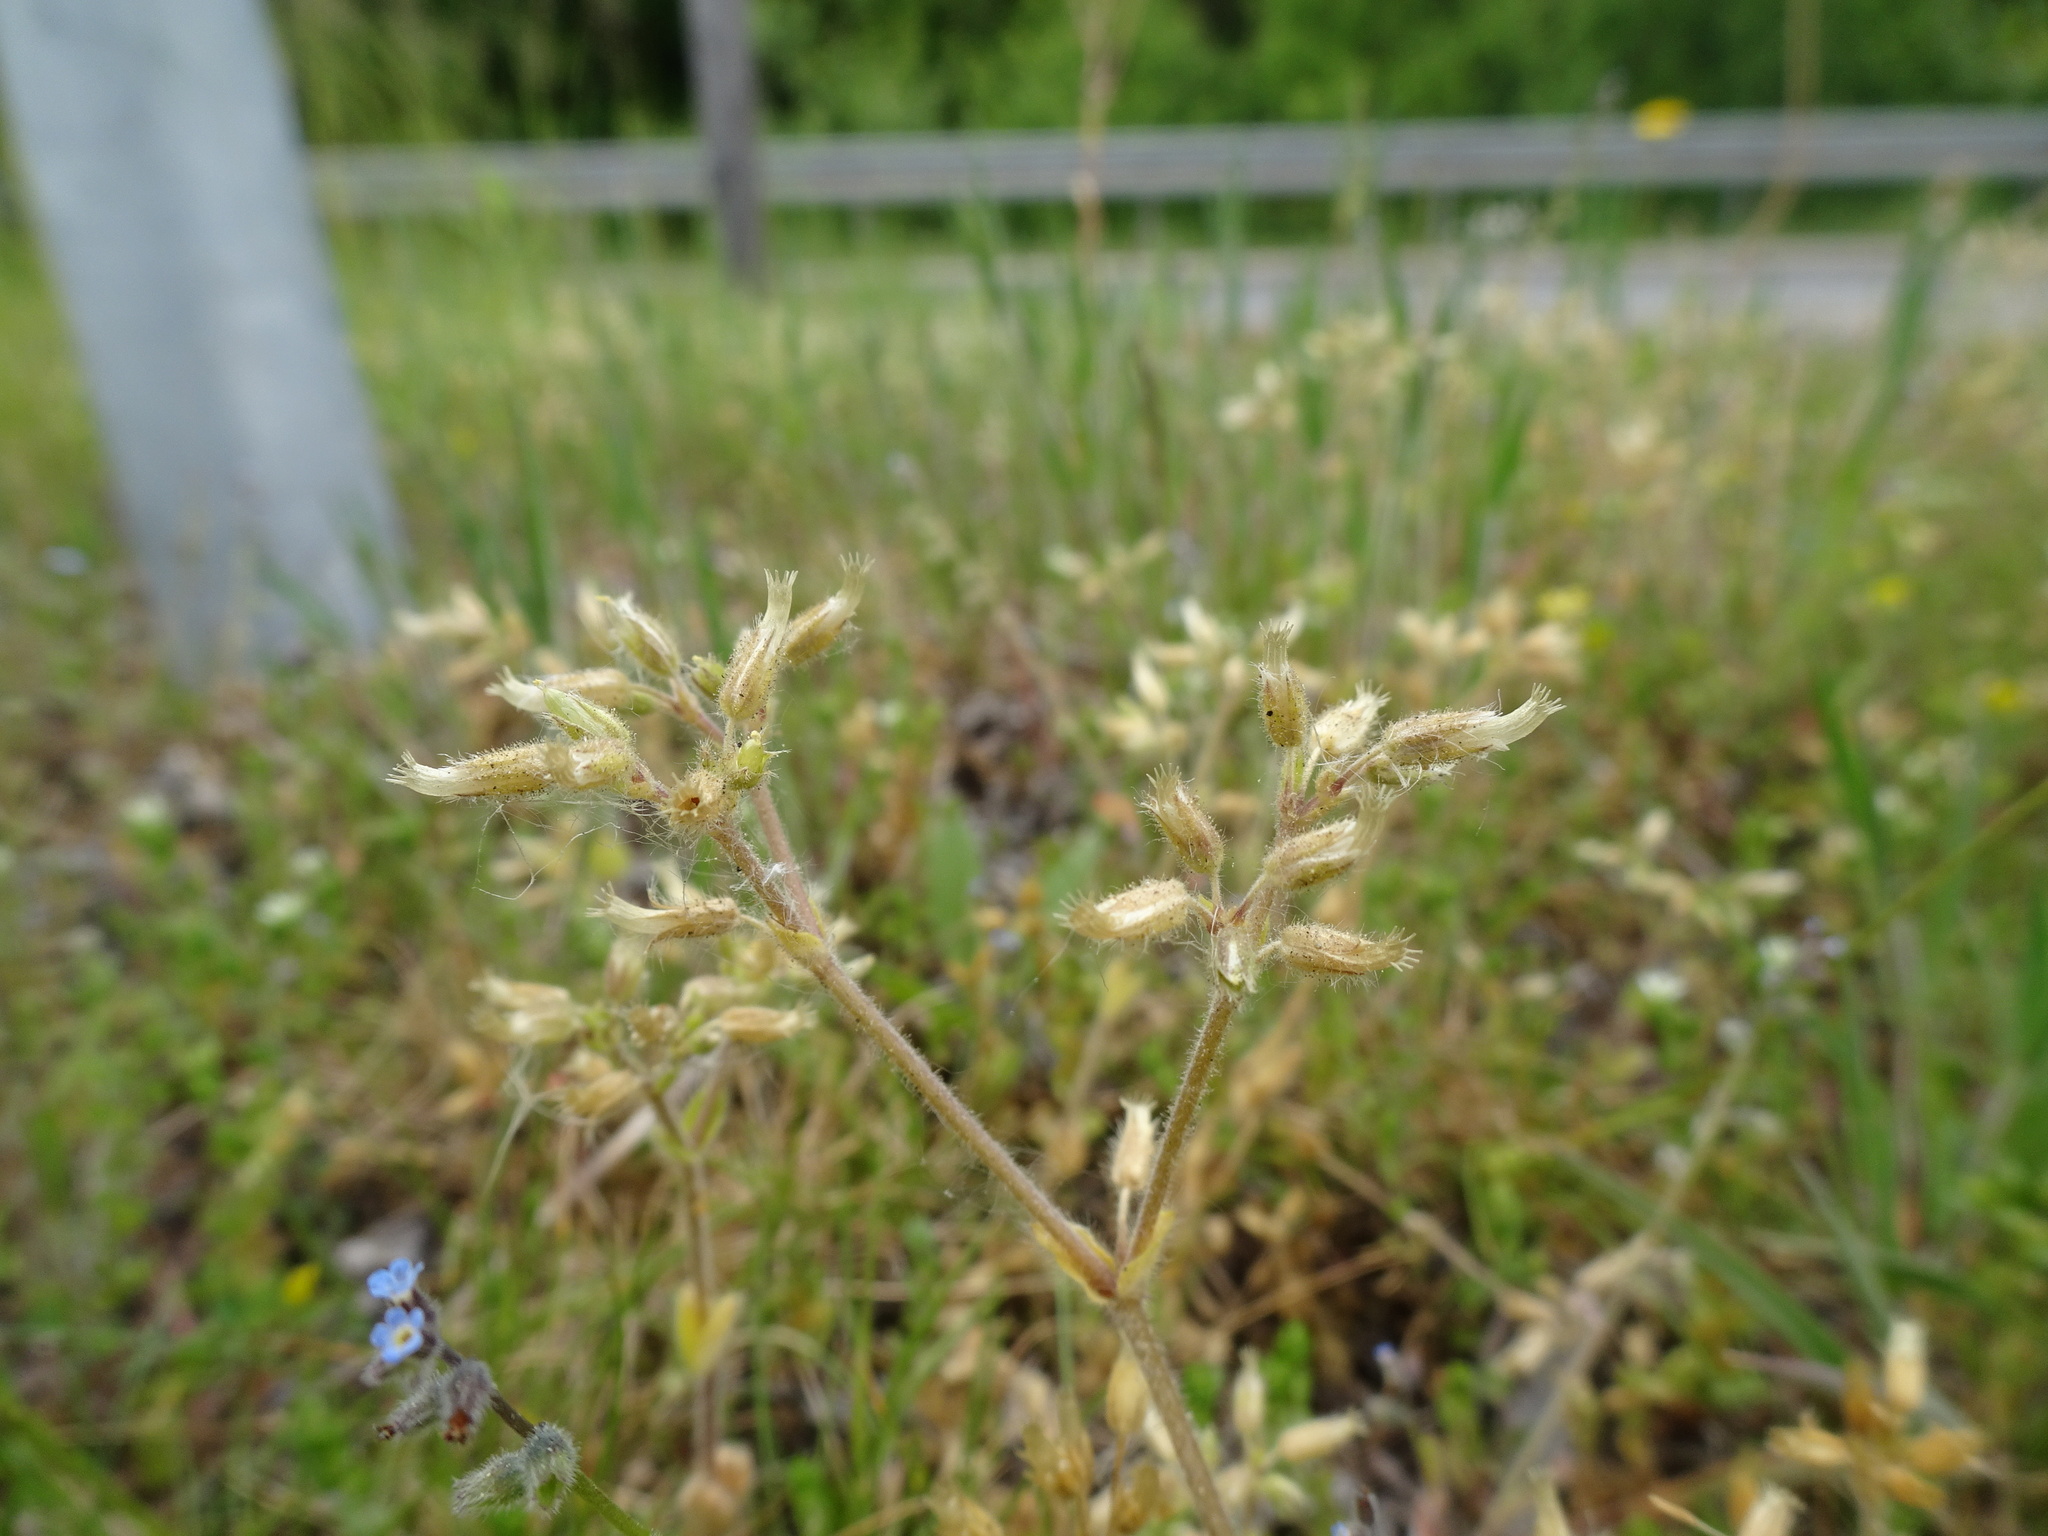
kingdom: Plantae
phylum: Tracheophyta
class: Magnoliopsida
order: Caryophyllales
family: Caryophyllaceae
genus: Cerastium
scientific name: Cerastium semidecandrum
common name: Little mouse-ear
